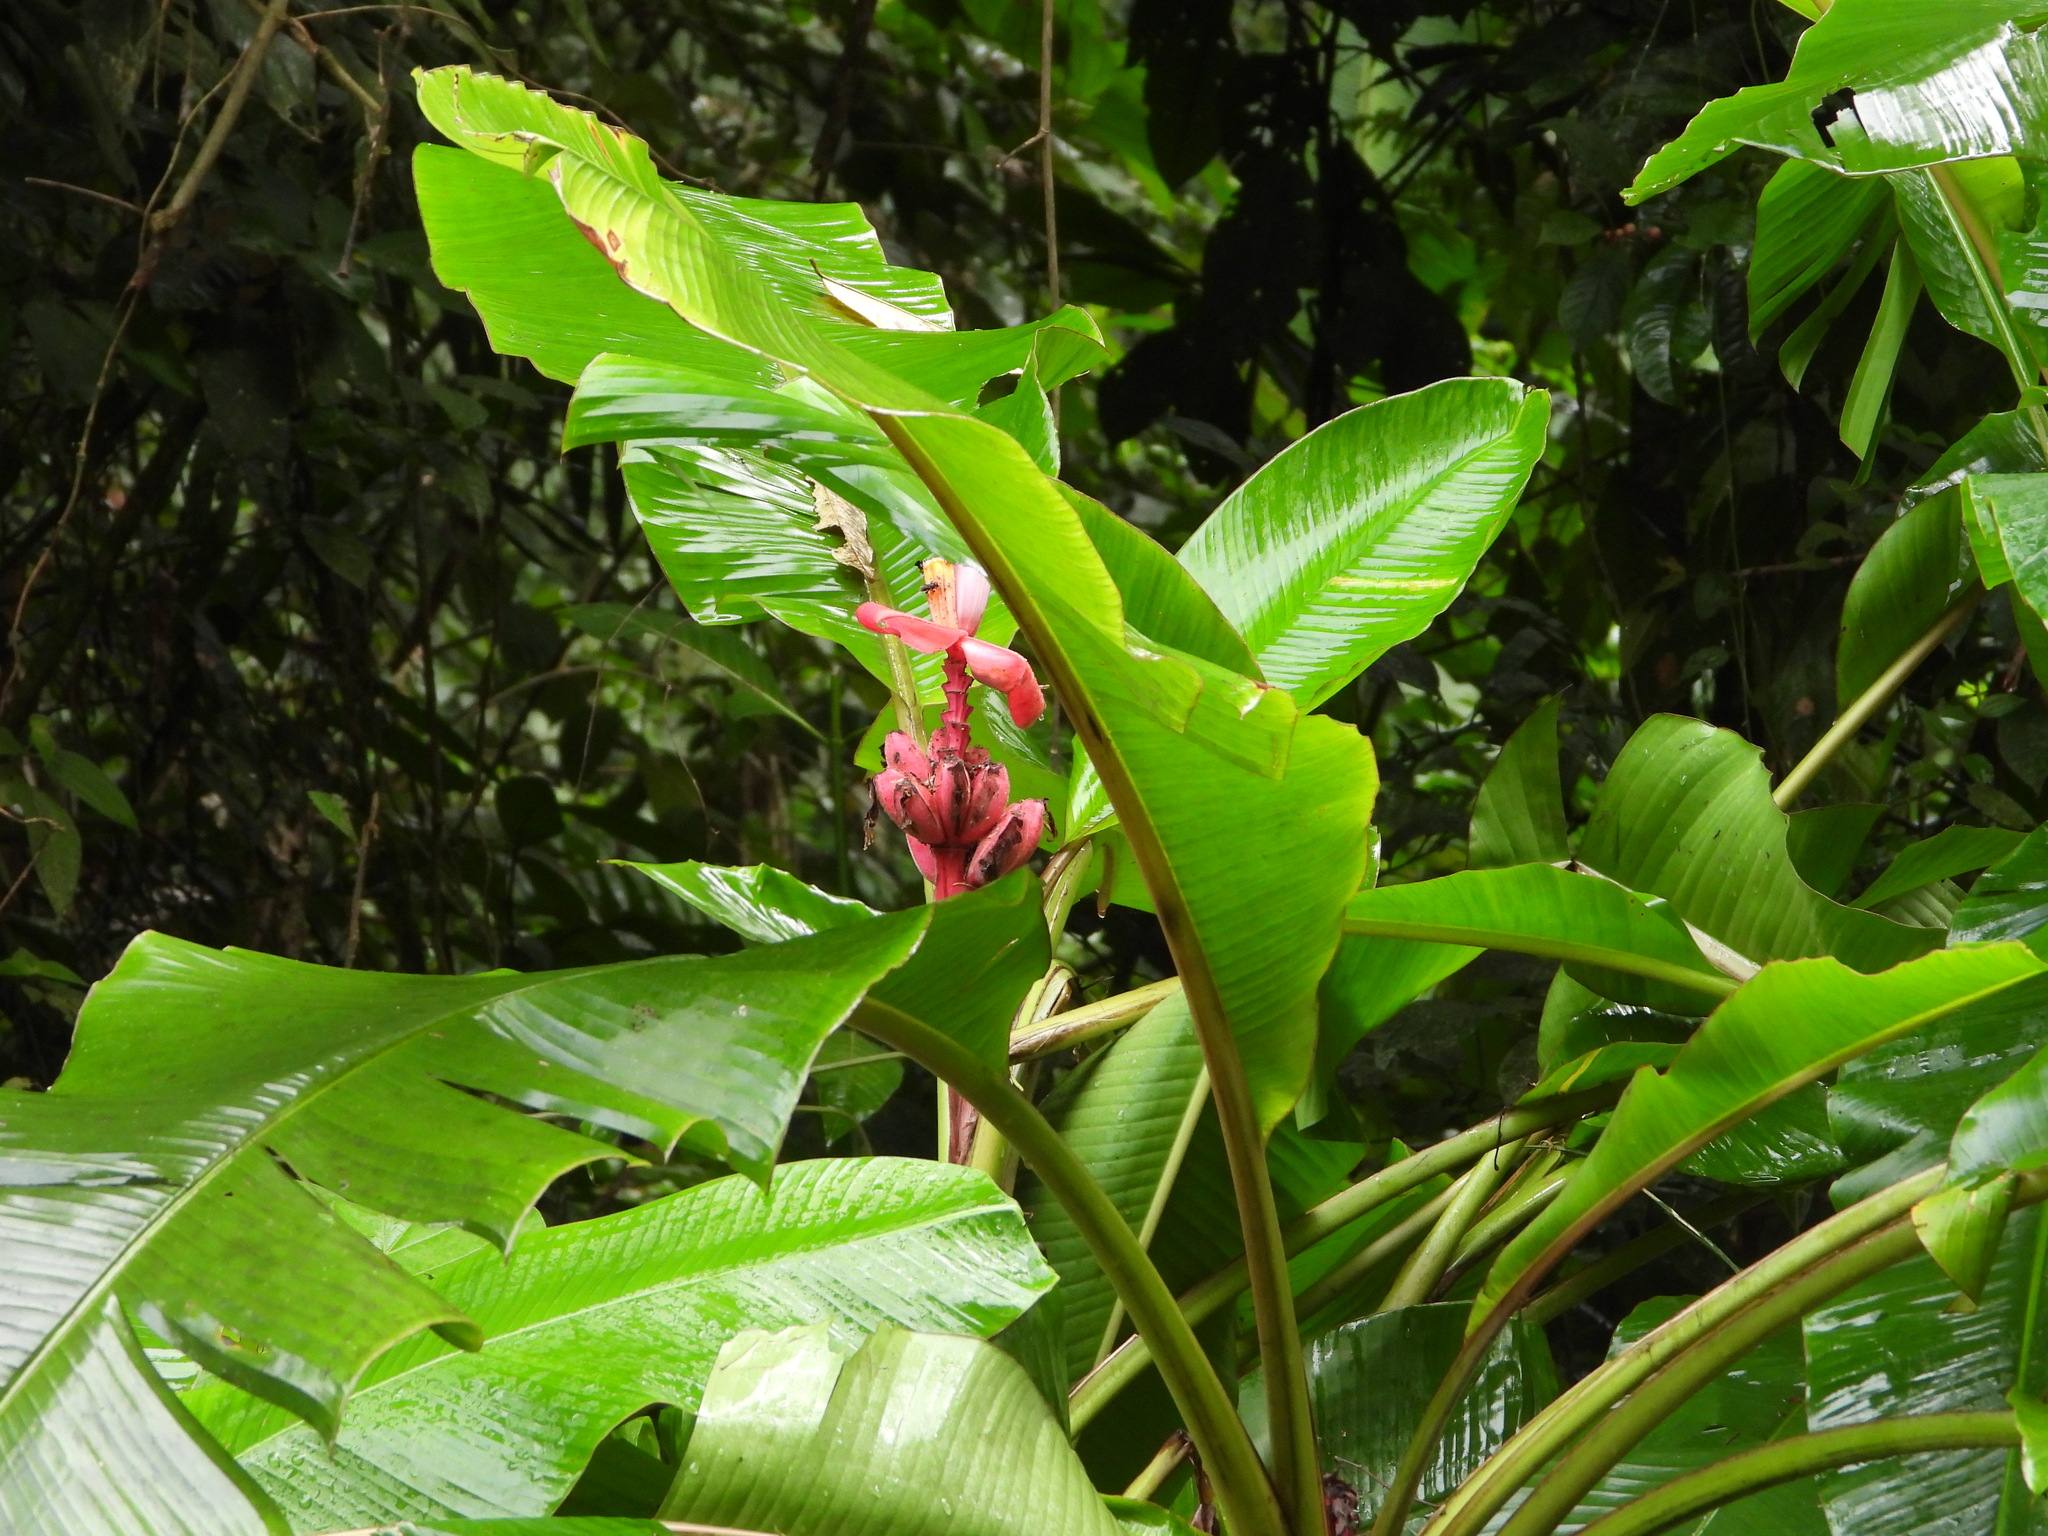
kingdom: Plantae
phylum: Tracheophyta
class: Liliopsida
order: Zingiberales
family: Musaceae
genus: Musa
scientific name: Musa velutina
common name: Pink velvet banana
